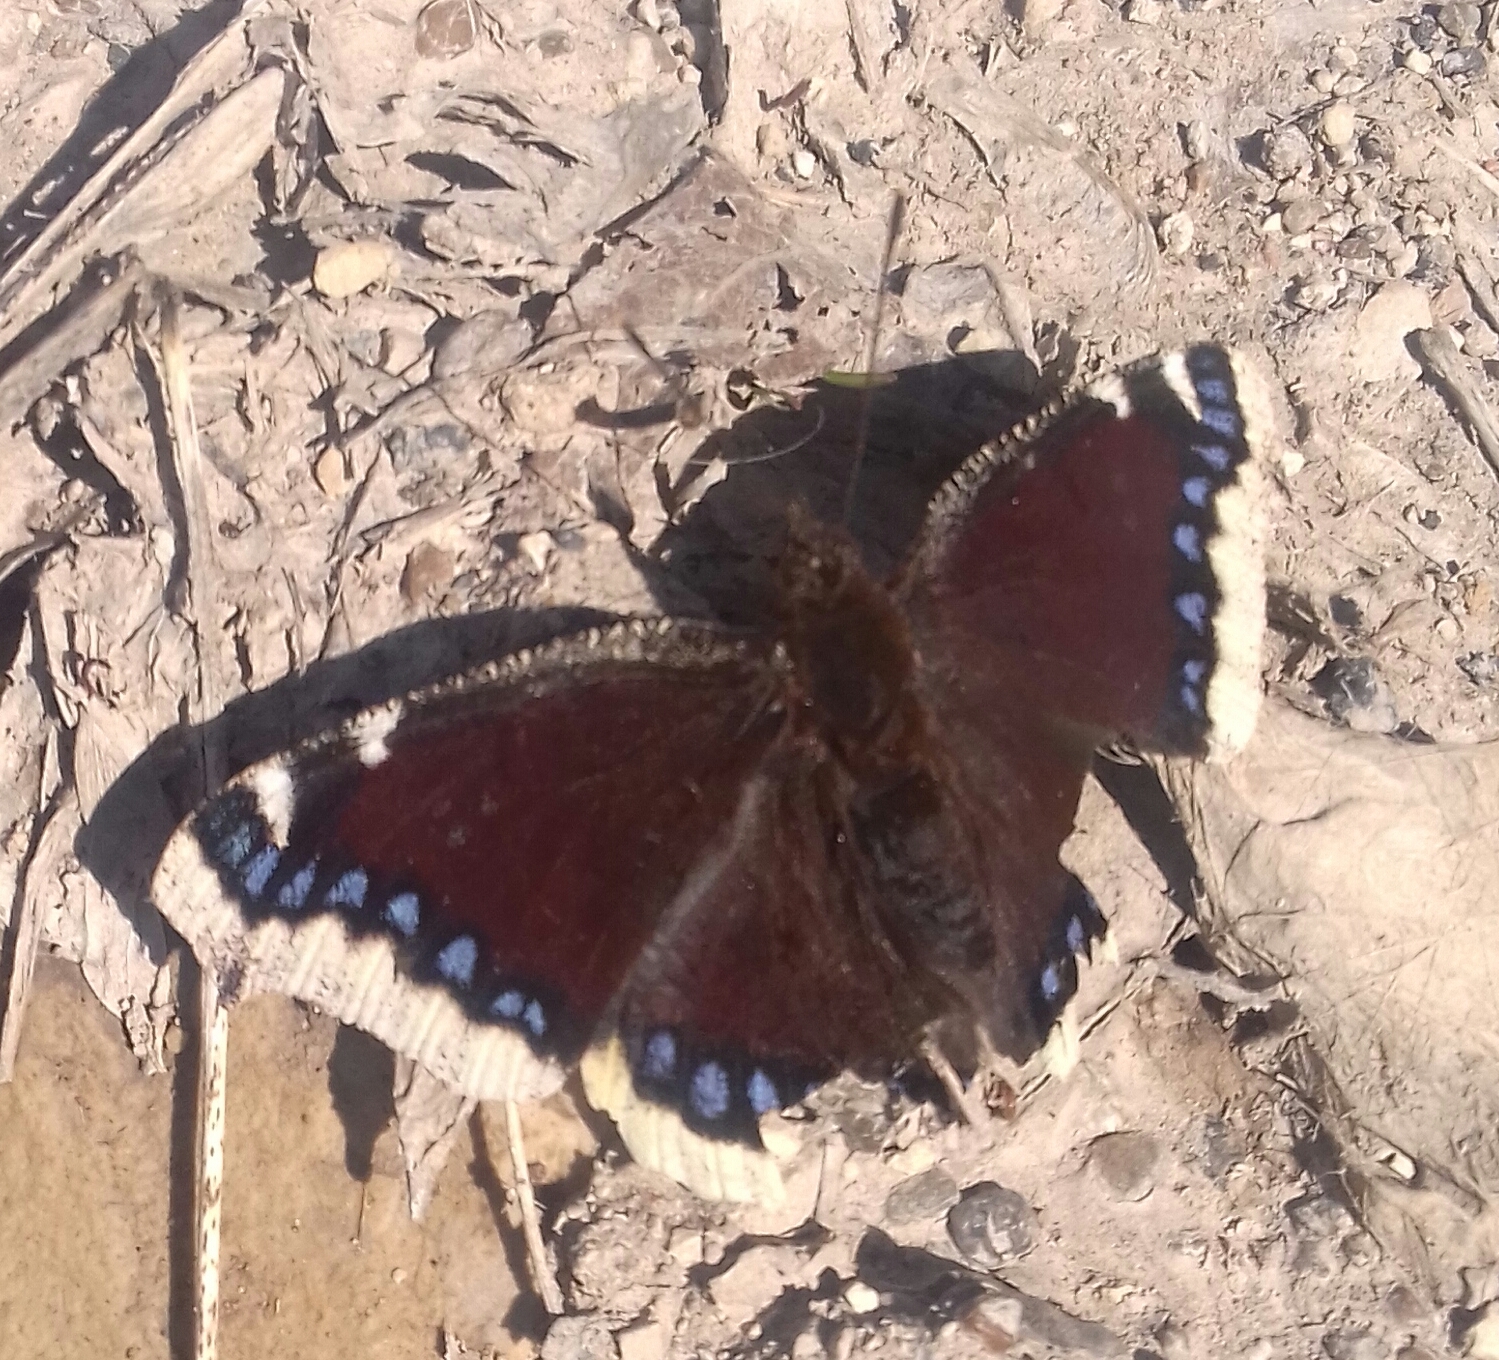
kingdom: Animalia
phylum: Arthropoda
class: Insecta
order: Lepidoptera
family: Nymphalidae
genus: Nymphalis
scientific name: Nymphalis antiopa
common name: Camberwell beauty
